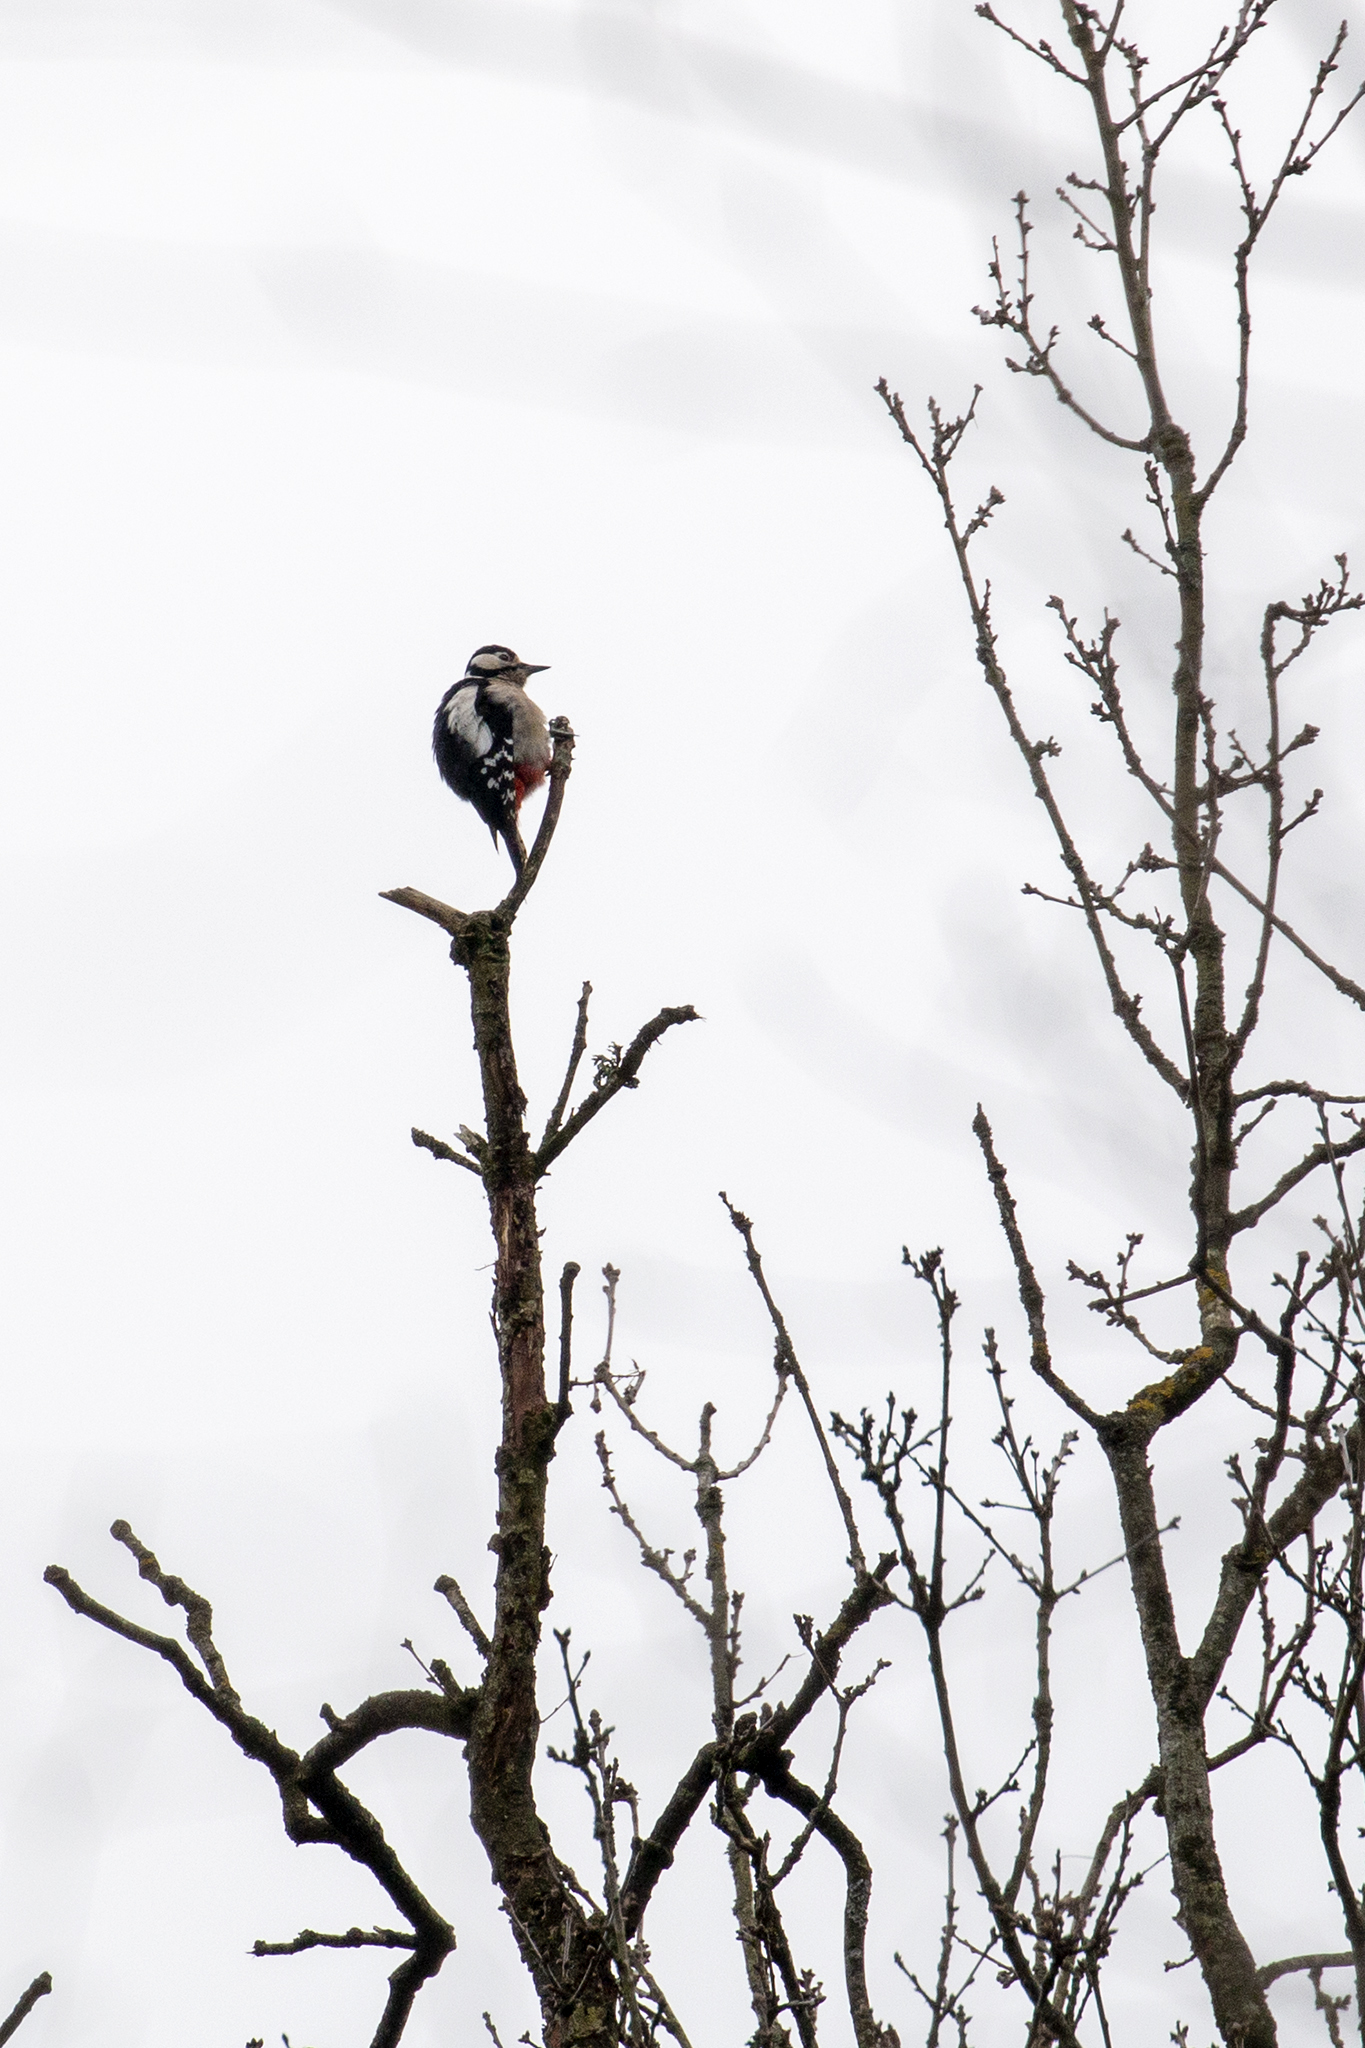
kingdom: Animalia
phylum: Chordata
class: Aves
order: Piciformes
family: Picidae
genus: Dendrocopos
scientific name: Dendrocopos major
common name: Great spotted woodpecker
